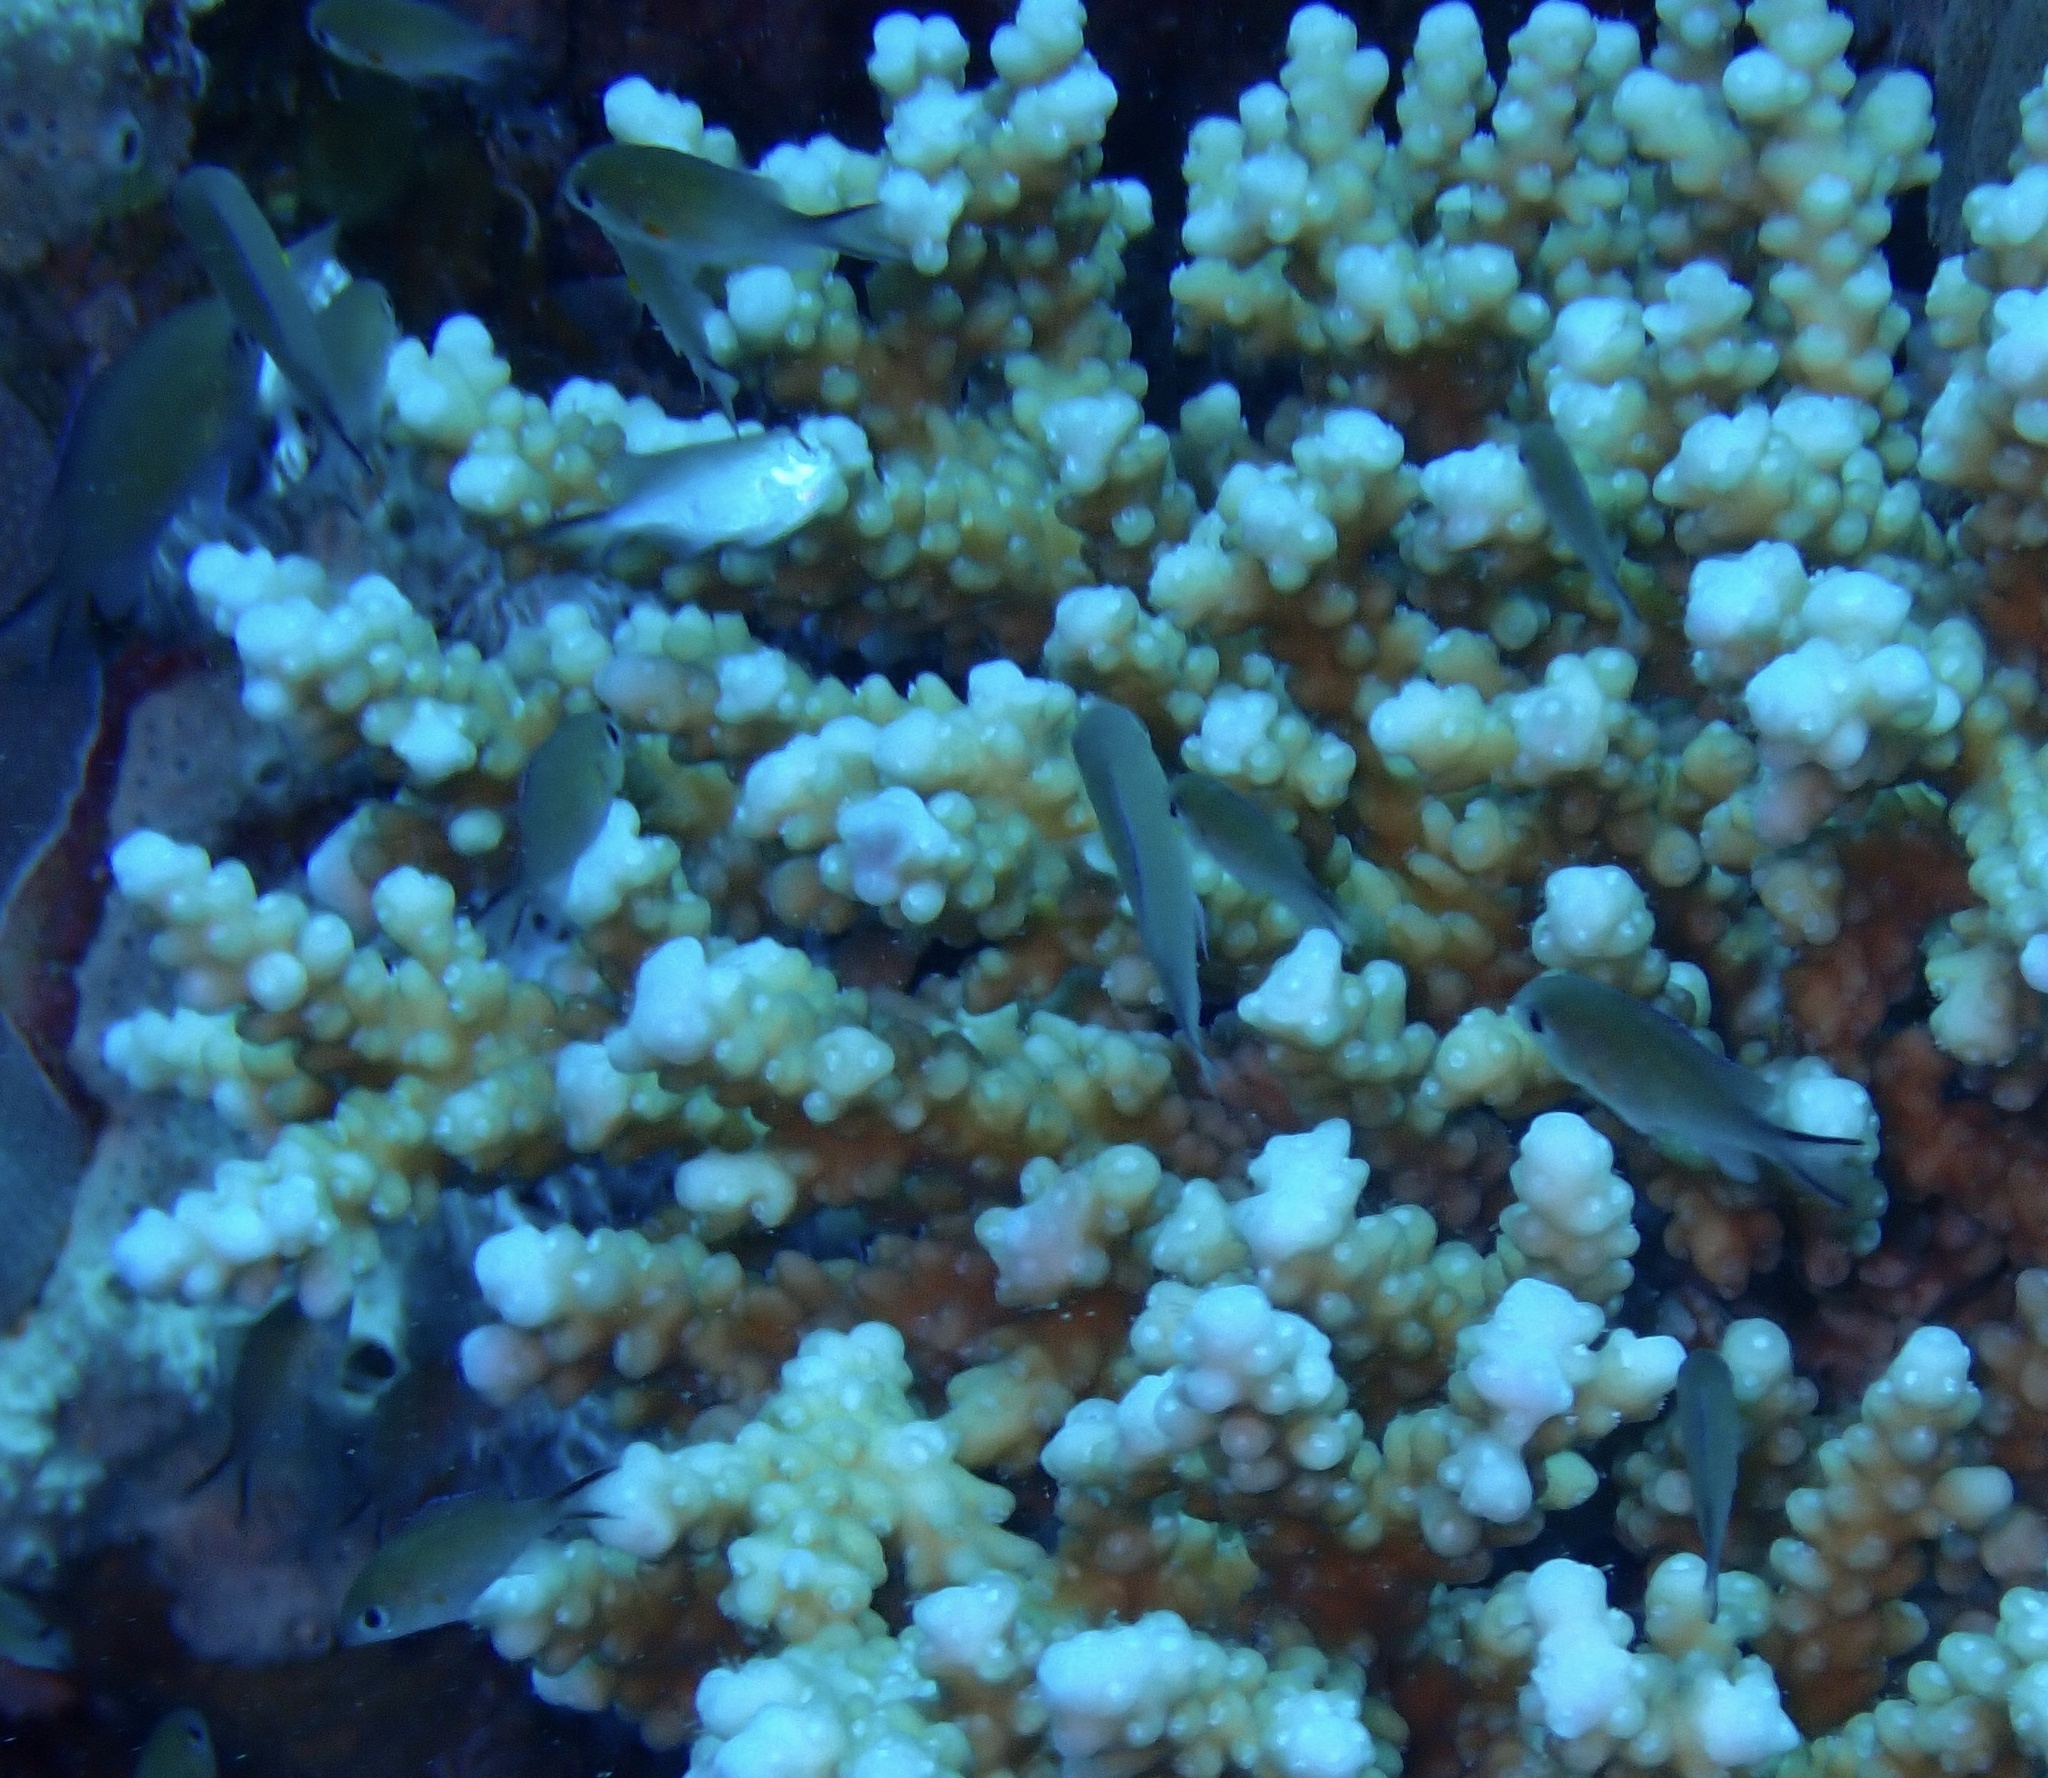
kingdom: Animalia
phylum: Chordata
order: Perciformes
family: Pomacentridae
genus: Chromis
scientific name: Chromis flavaxilla
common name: Arabian chromis
